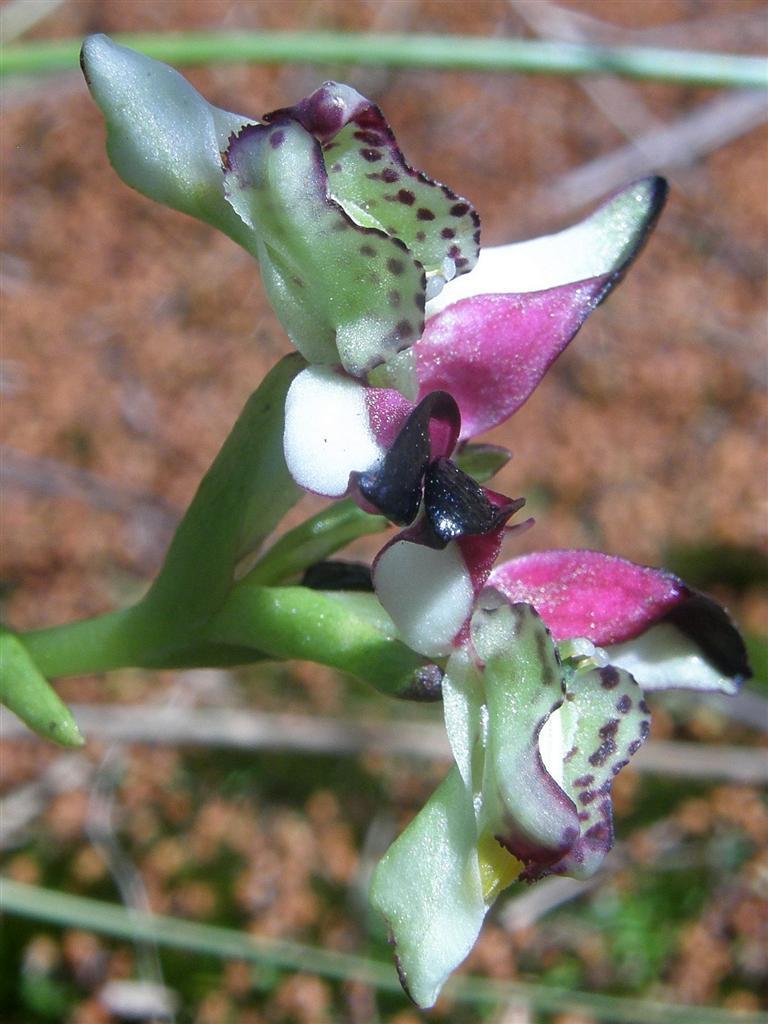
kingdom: Plantae
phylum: Tracheophyta
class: Liliopsida
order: Asparagales
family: Orchidaceae
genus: Disa
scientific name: Disa atricapilla
